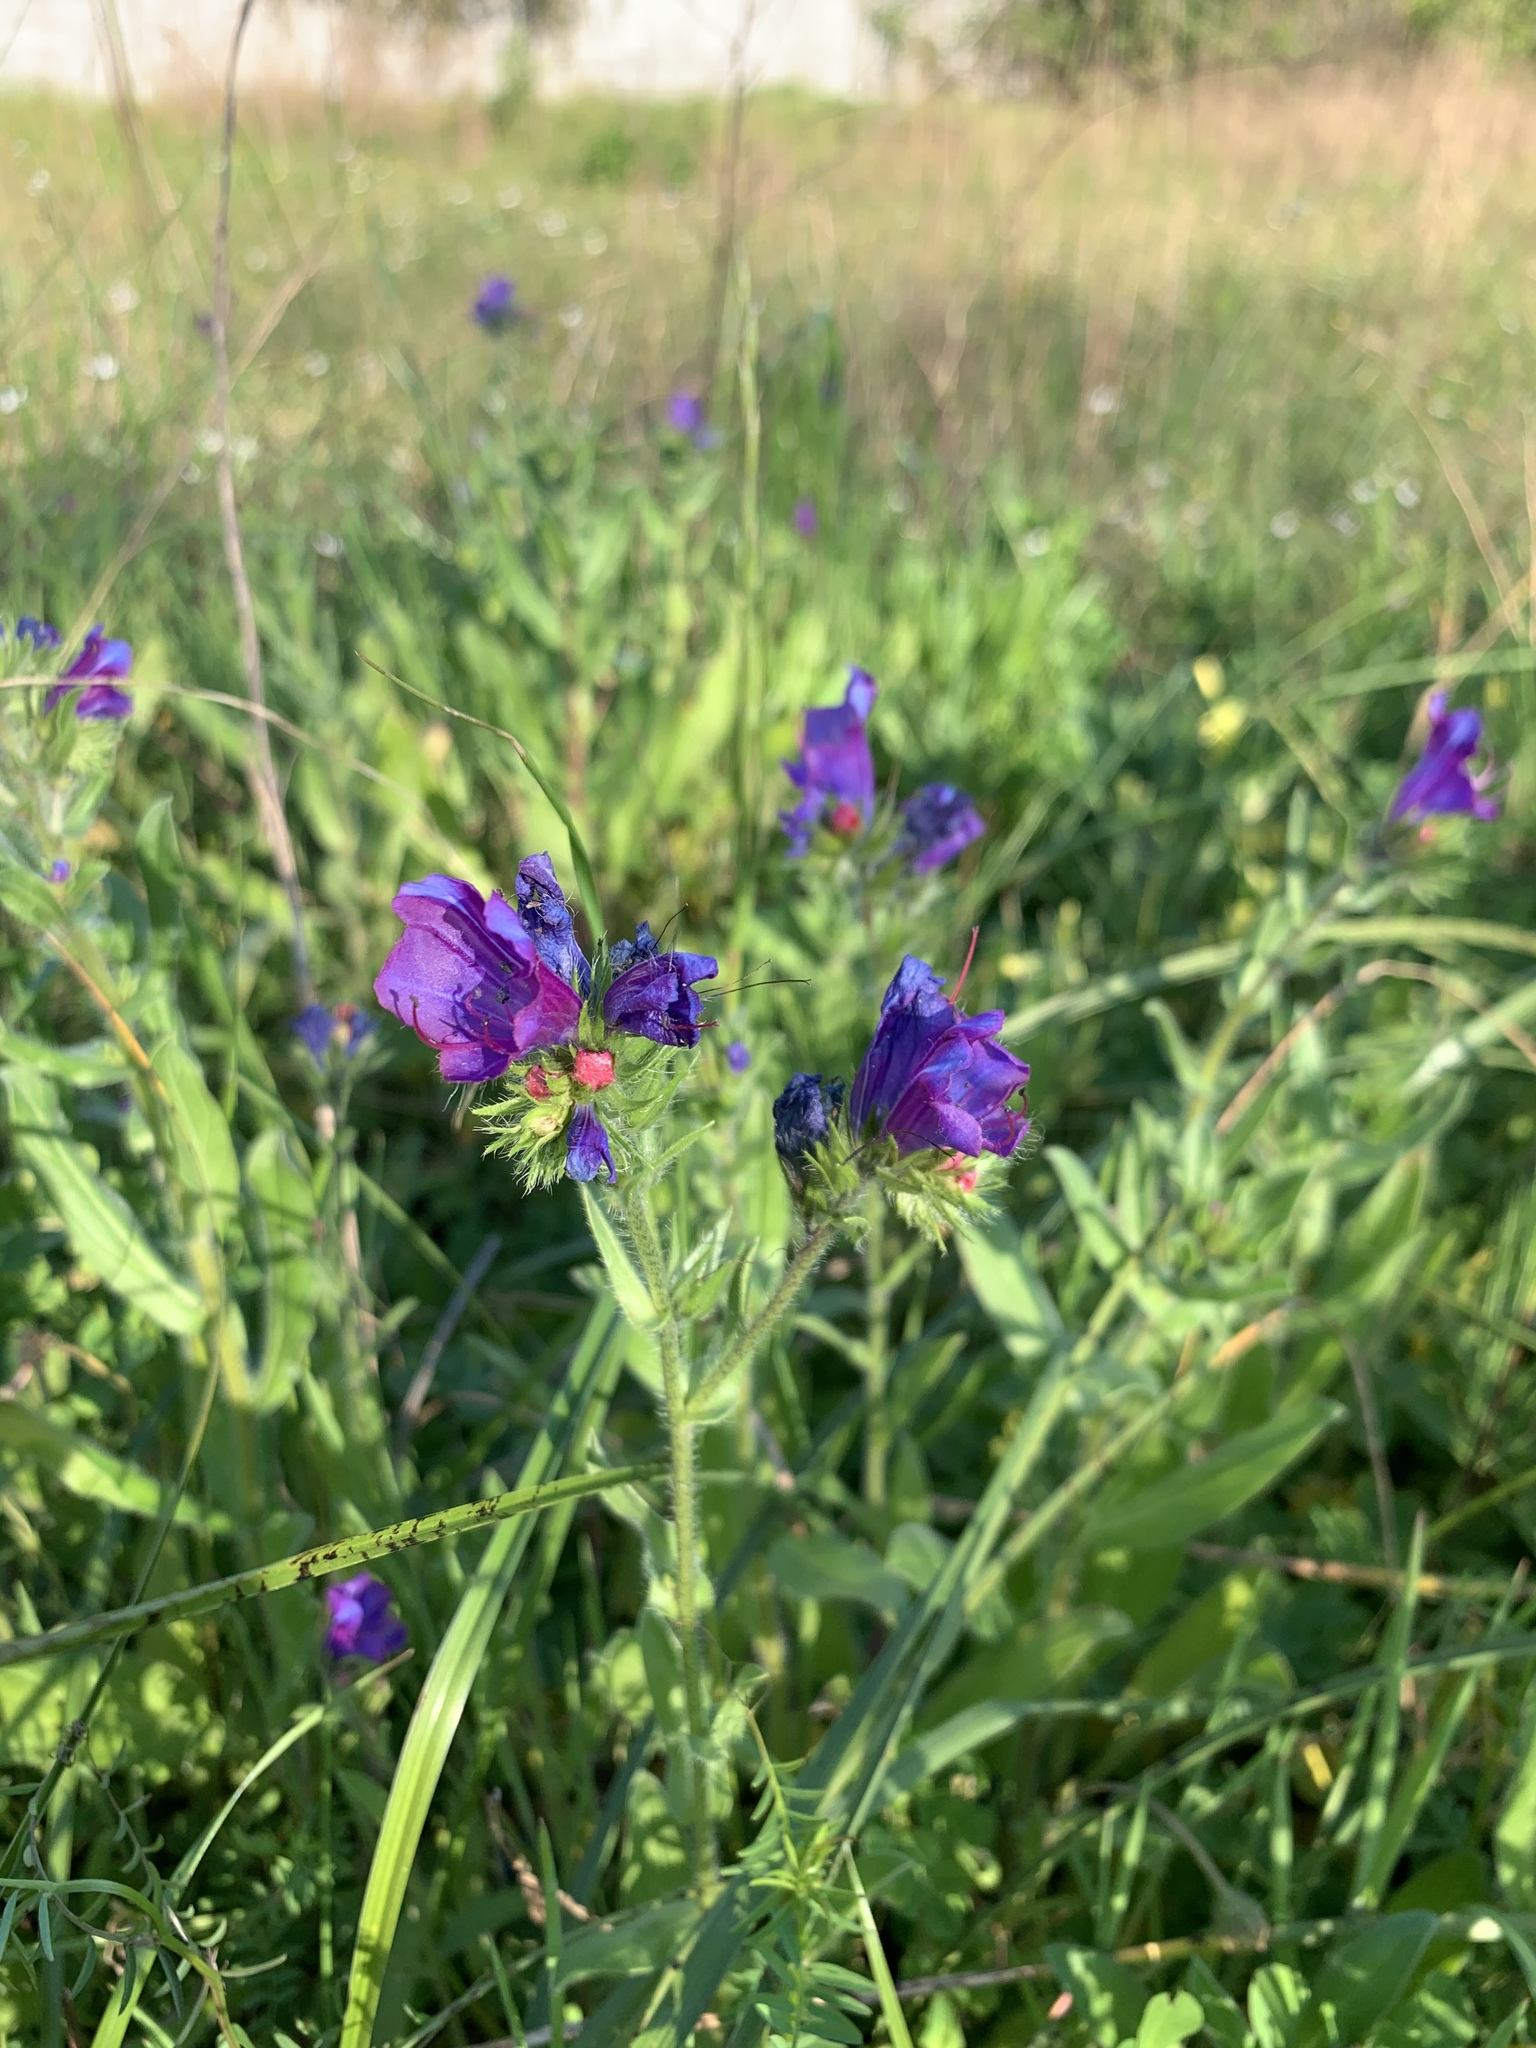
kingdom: Plantae
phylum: Tracheophyta
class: Magnoliopsida
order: Boraginales
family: Boraginaceae
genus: Echium
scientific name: Echium plantagineum
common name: Purple viper's-bugloss
